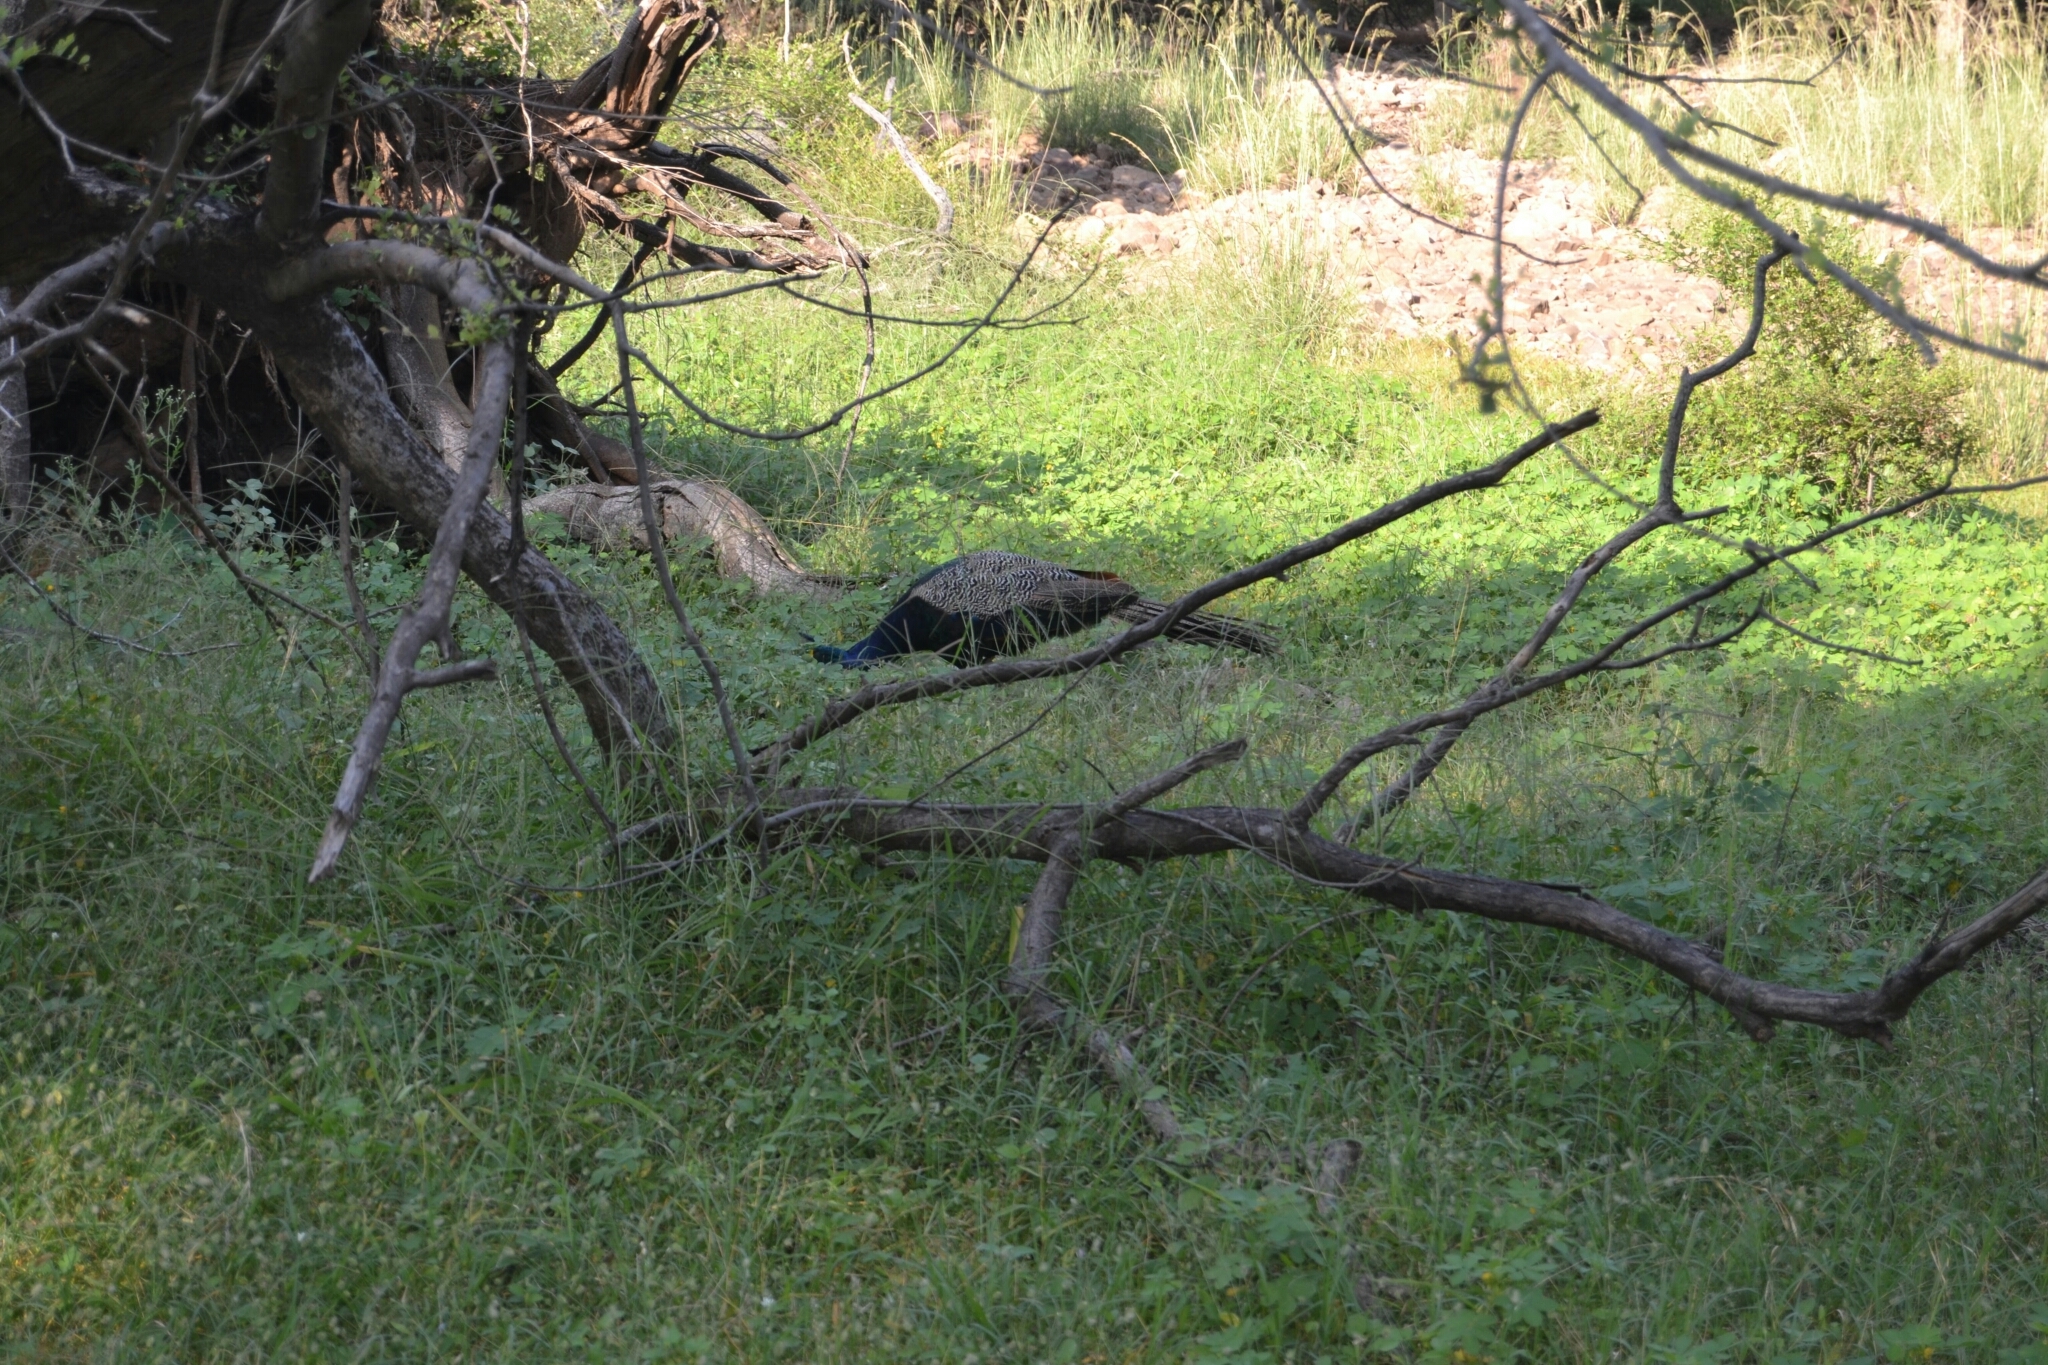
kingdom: Animalia
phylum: Chordata
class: Aves
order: Galliformes
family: Phasianidae
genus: Pavo
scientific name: Pavo cristatus
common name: Indian peafowl
